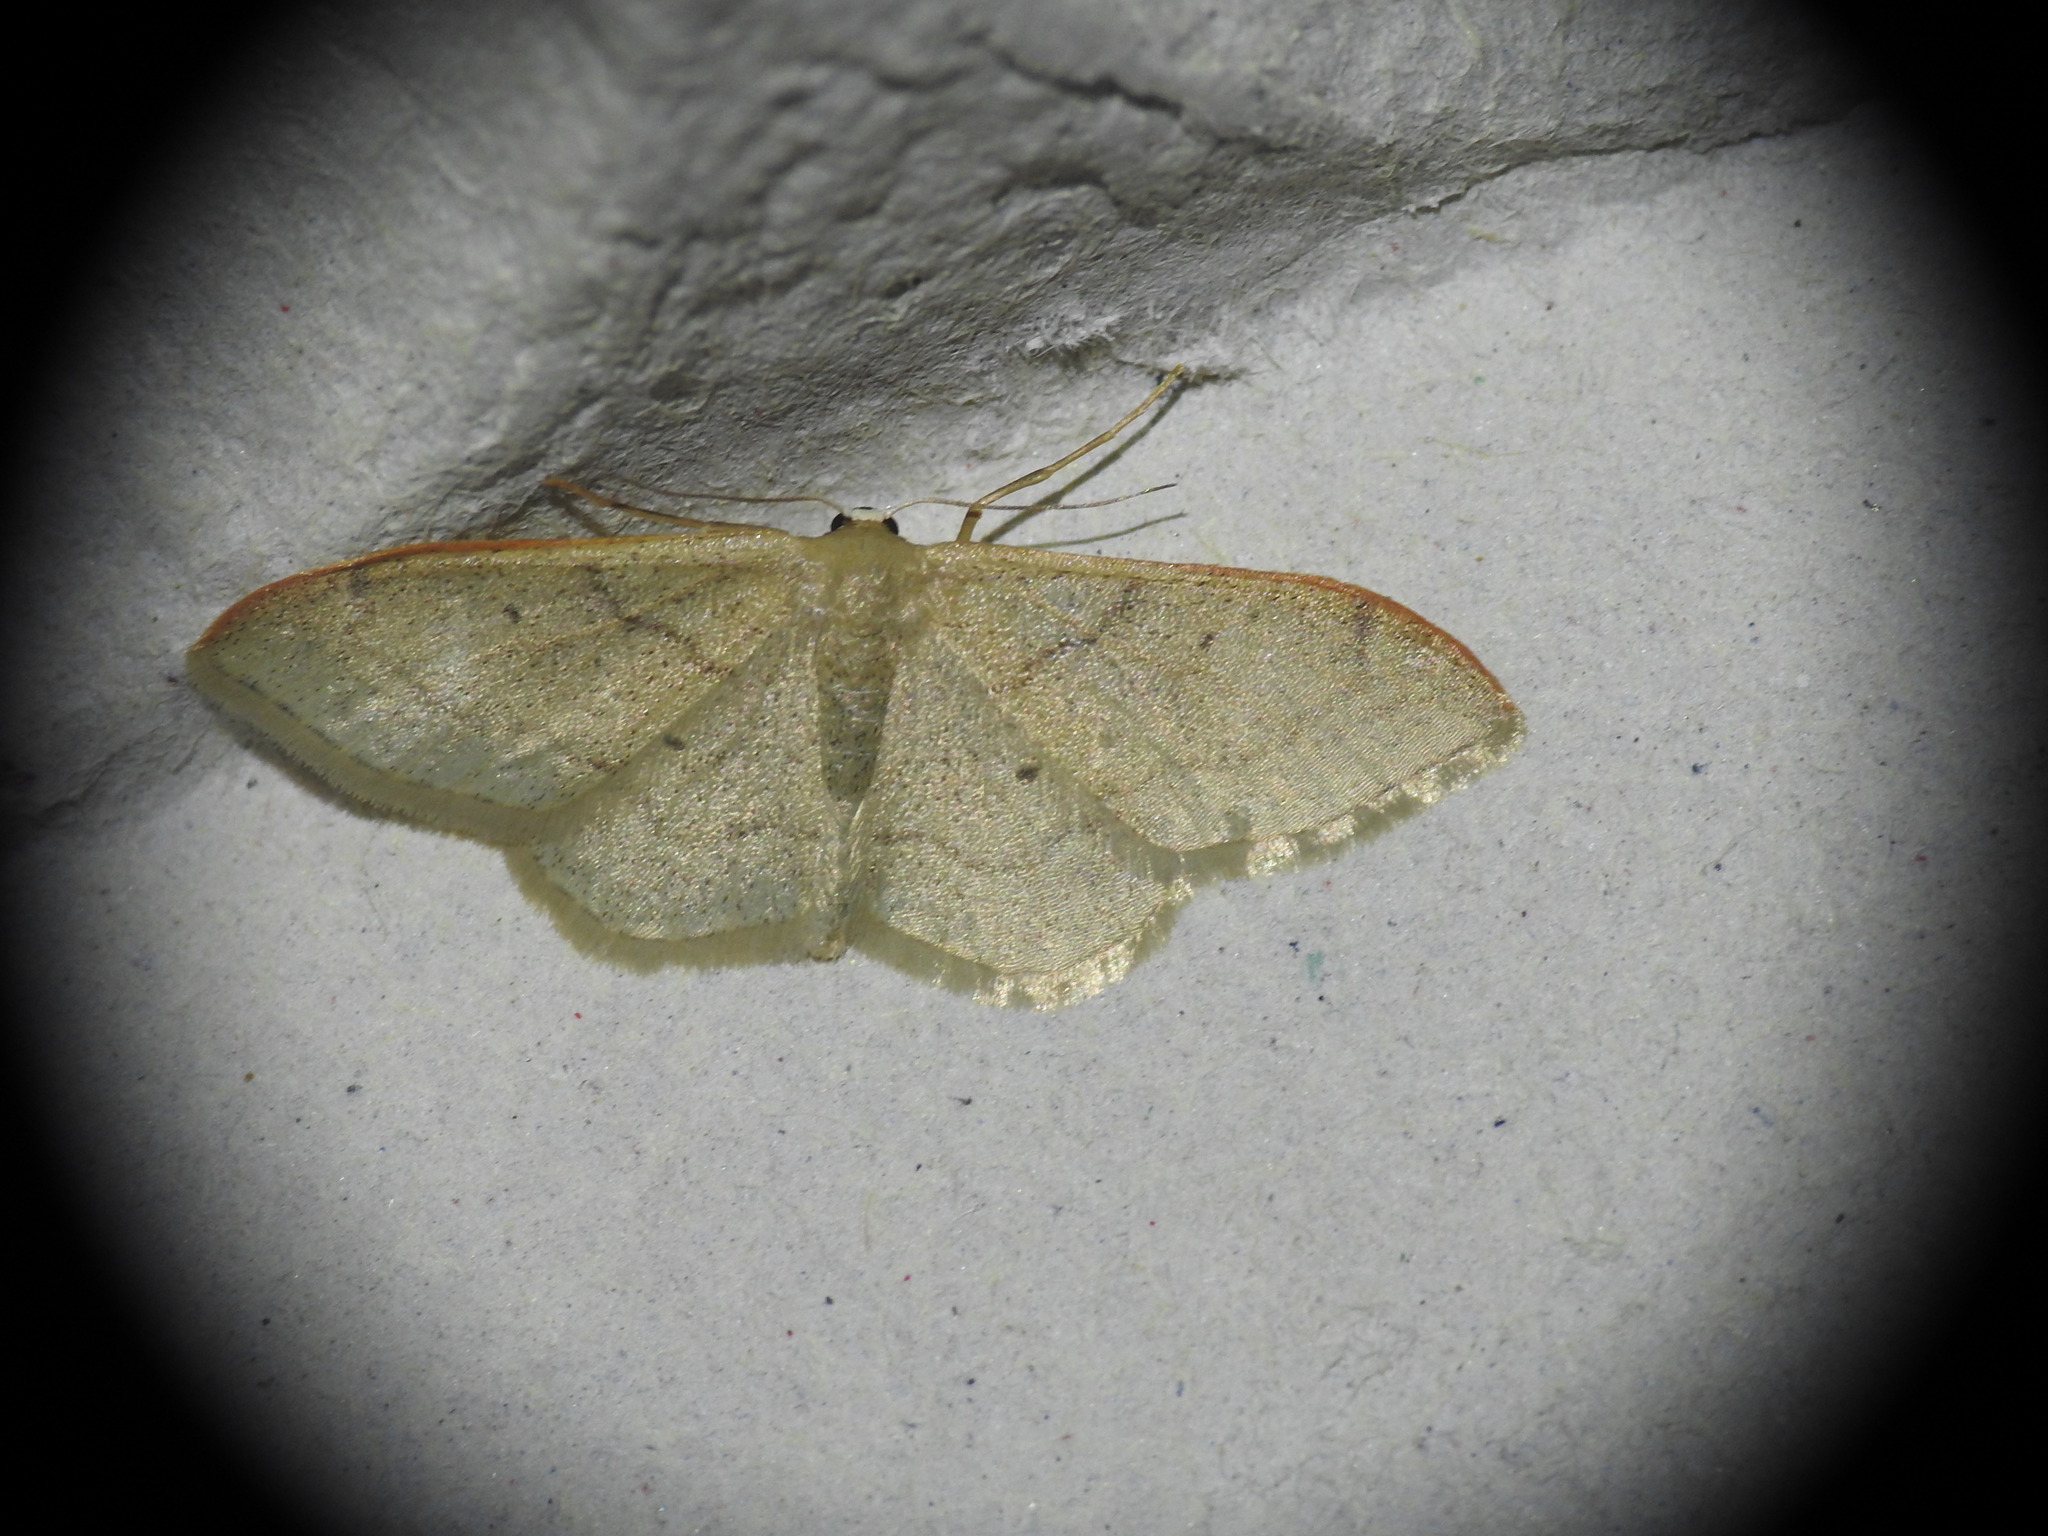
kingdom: Animalia
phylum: Arthropoda
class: Insecta
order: Lepidoptera
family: Geometridae
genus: Idaea
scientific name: Idaea degeneraria
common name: Portland ribbon wave
